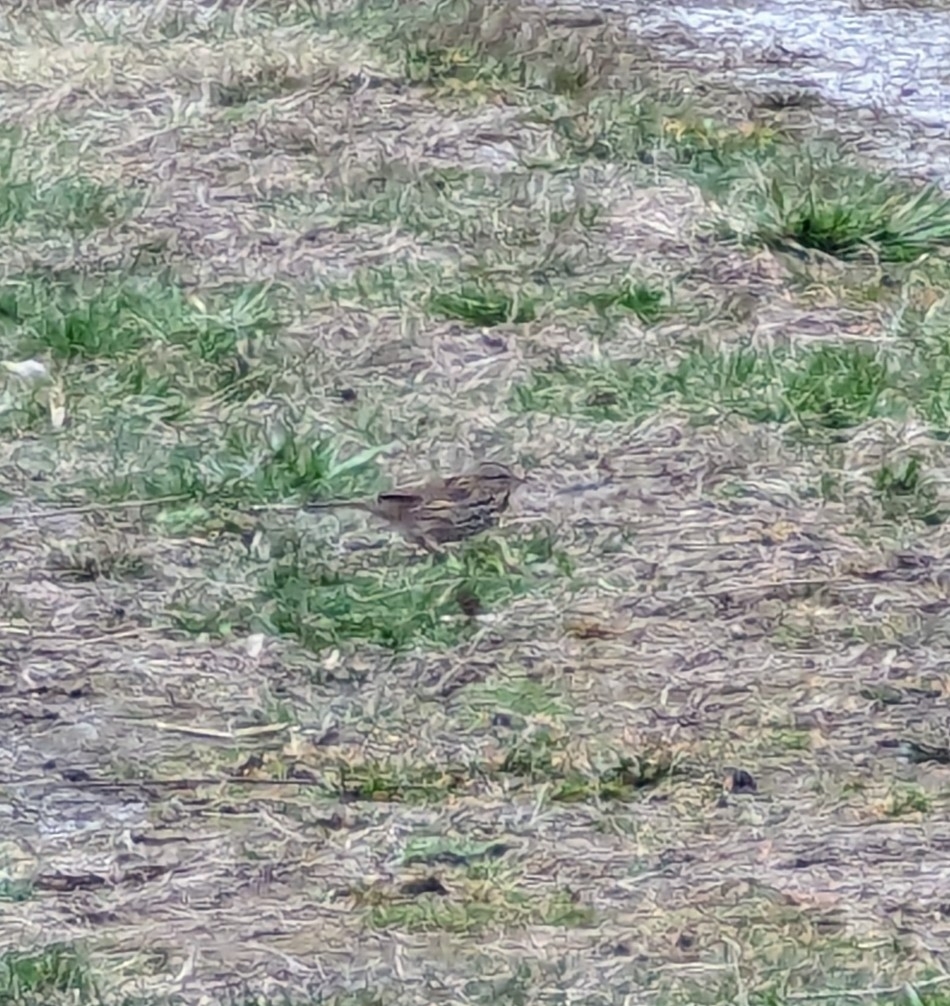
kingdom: Animalia
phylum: Chordata
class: Aves
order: Passeriformes
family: Passerellidae
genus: Melospiza
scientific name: Melospiza melodia
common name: Song sparrow
